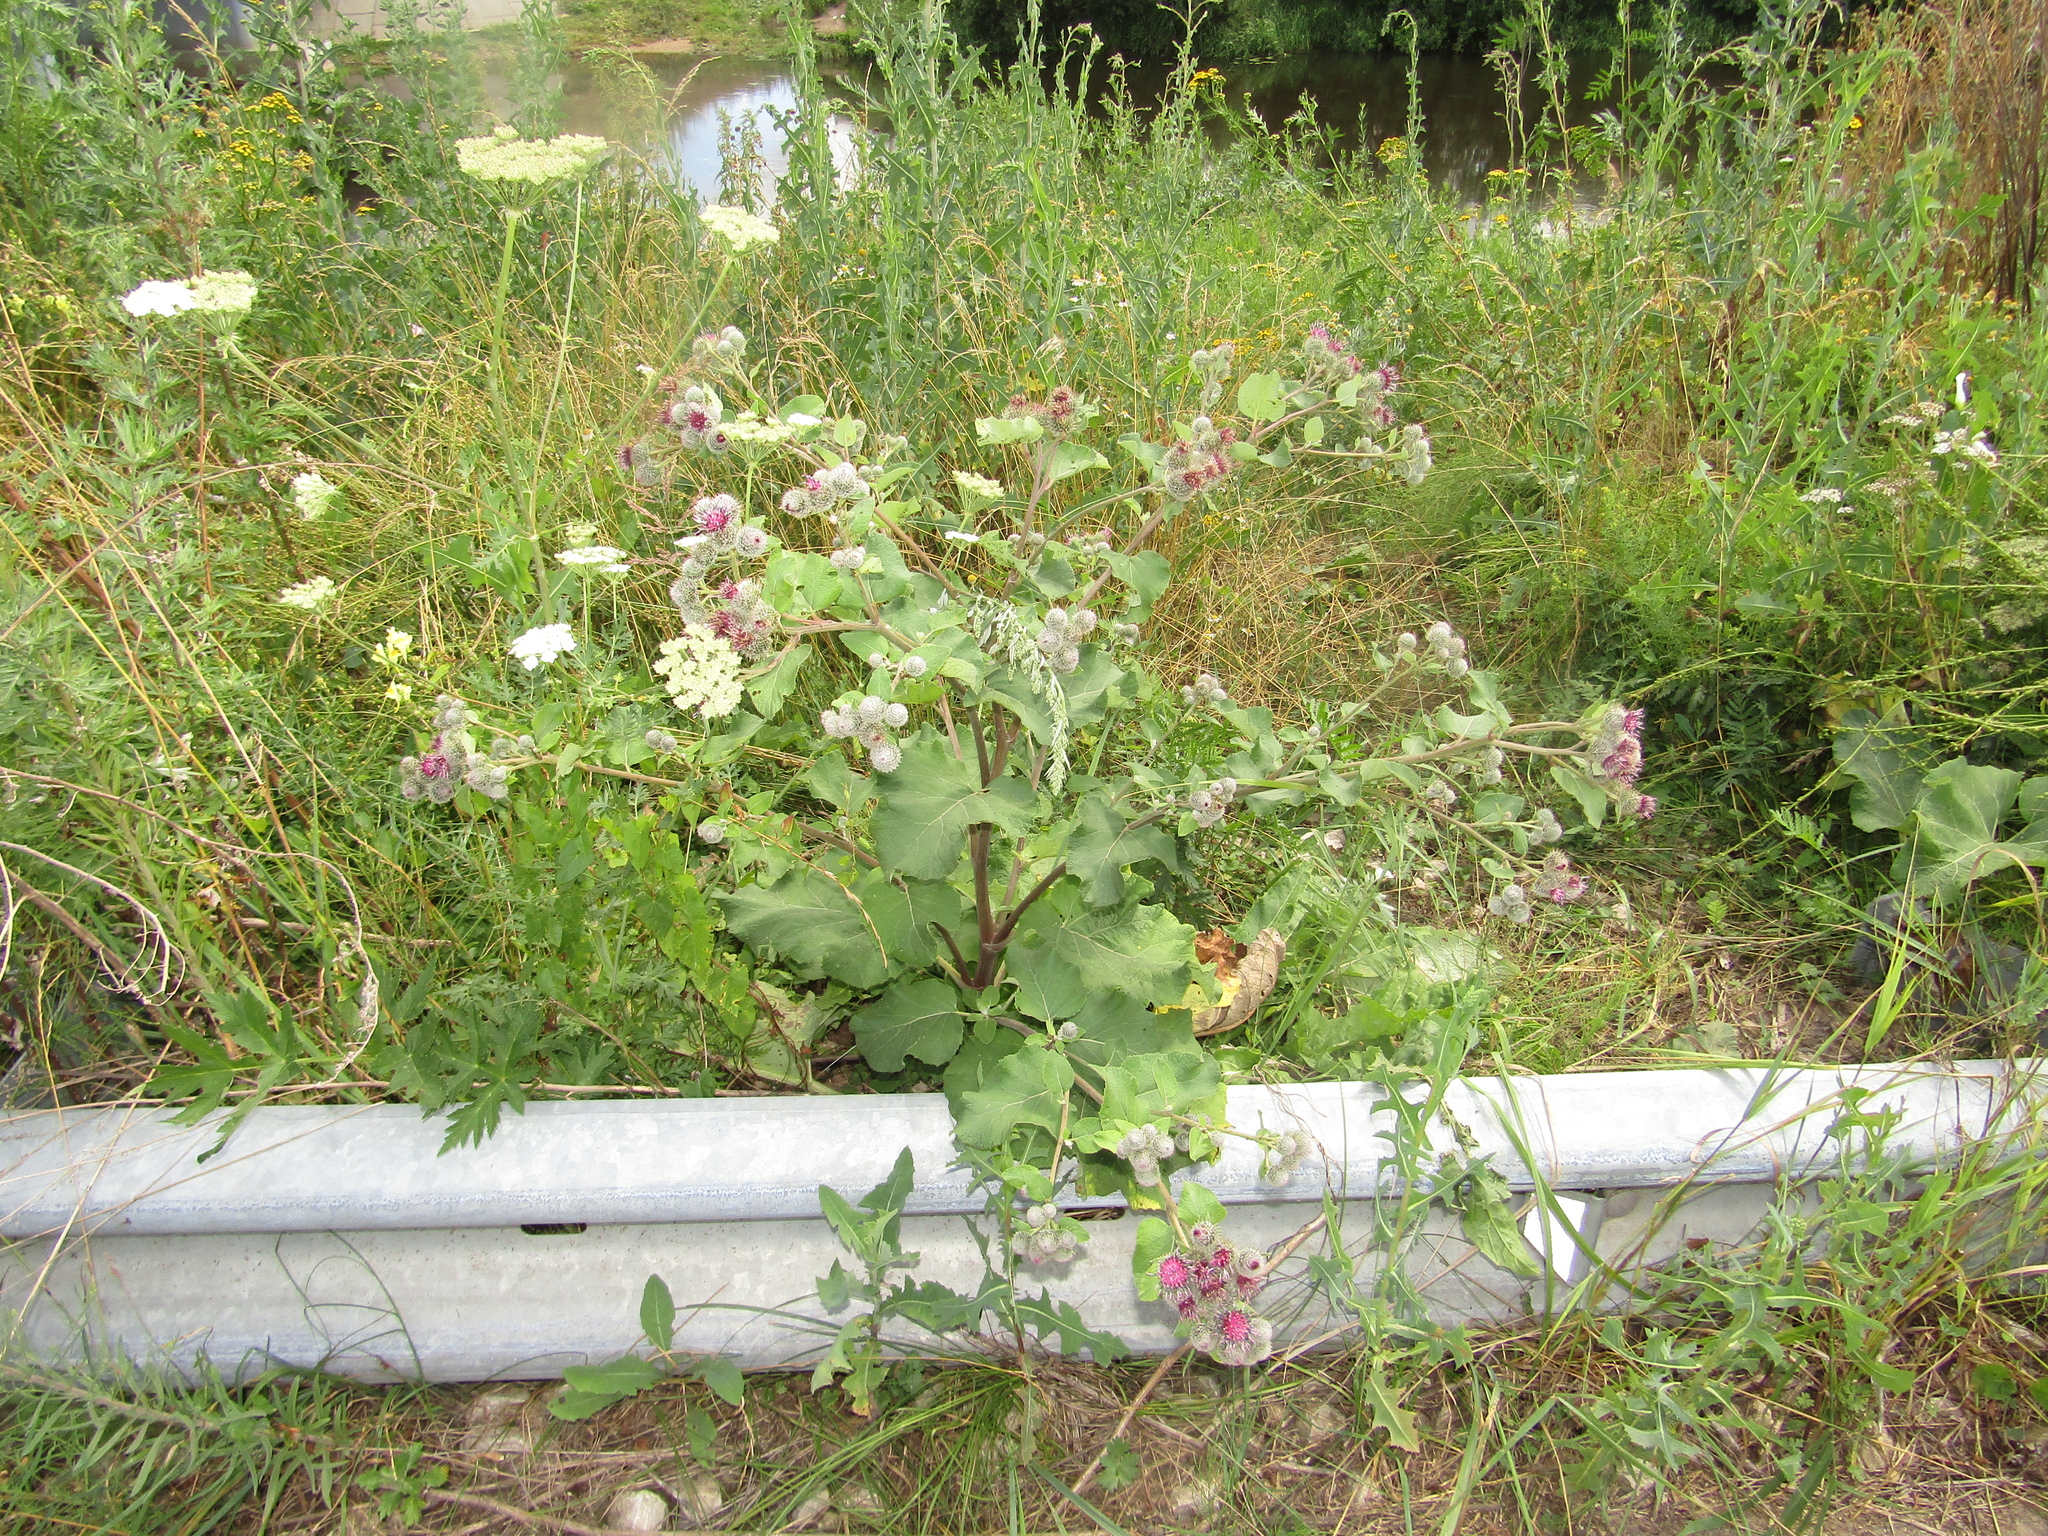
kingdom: Plantae
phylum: Tracheophyta
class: Magnoliopsida
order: Asterales
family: Asteraceae
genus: Arctium
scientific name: Arctium tomentosum
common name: Woolly burdock
